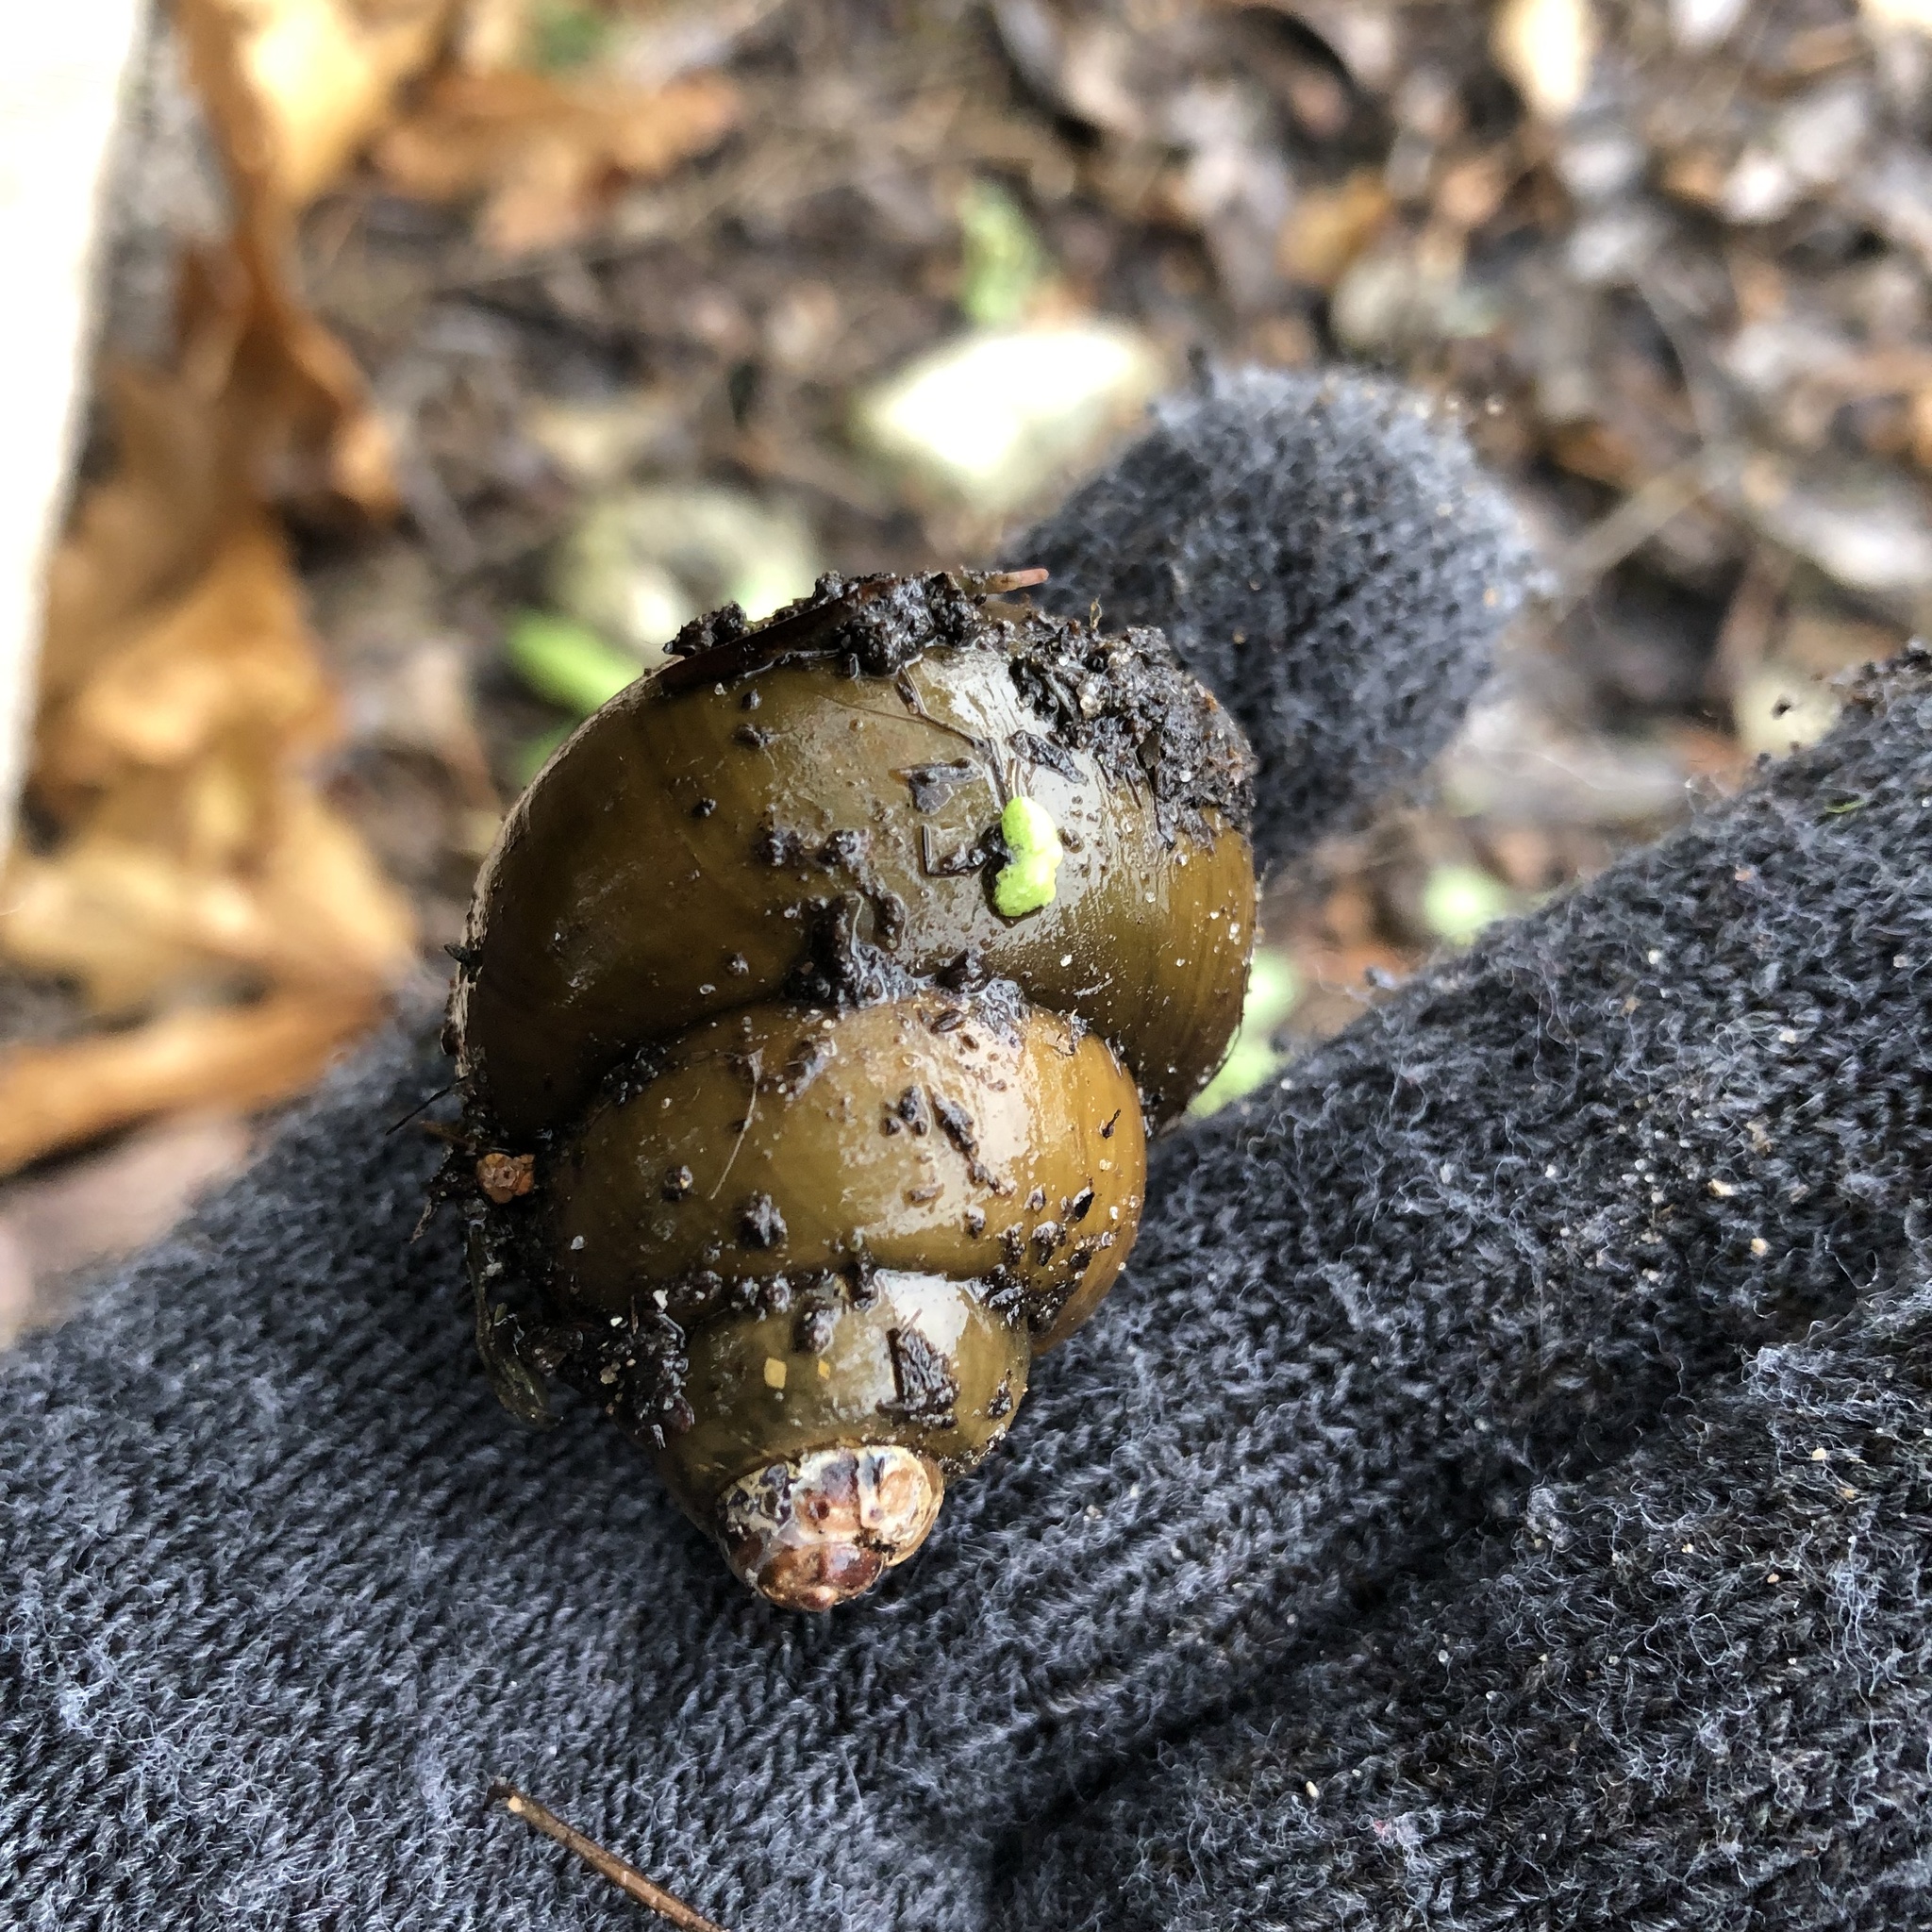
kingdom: Animalia
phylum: Mollusca
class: Gastropoda
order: Architaenioglossa
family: Viviparidae
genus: Cipangopaludina
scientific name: Cipangopaludina chinensis
